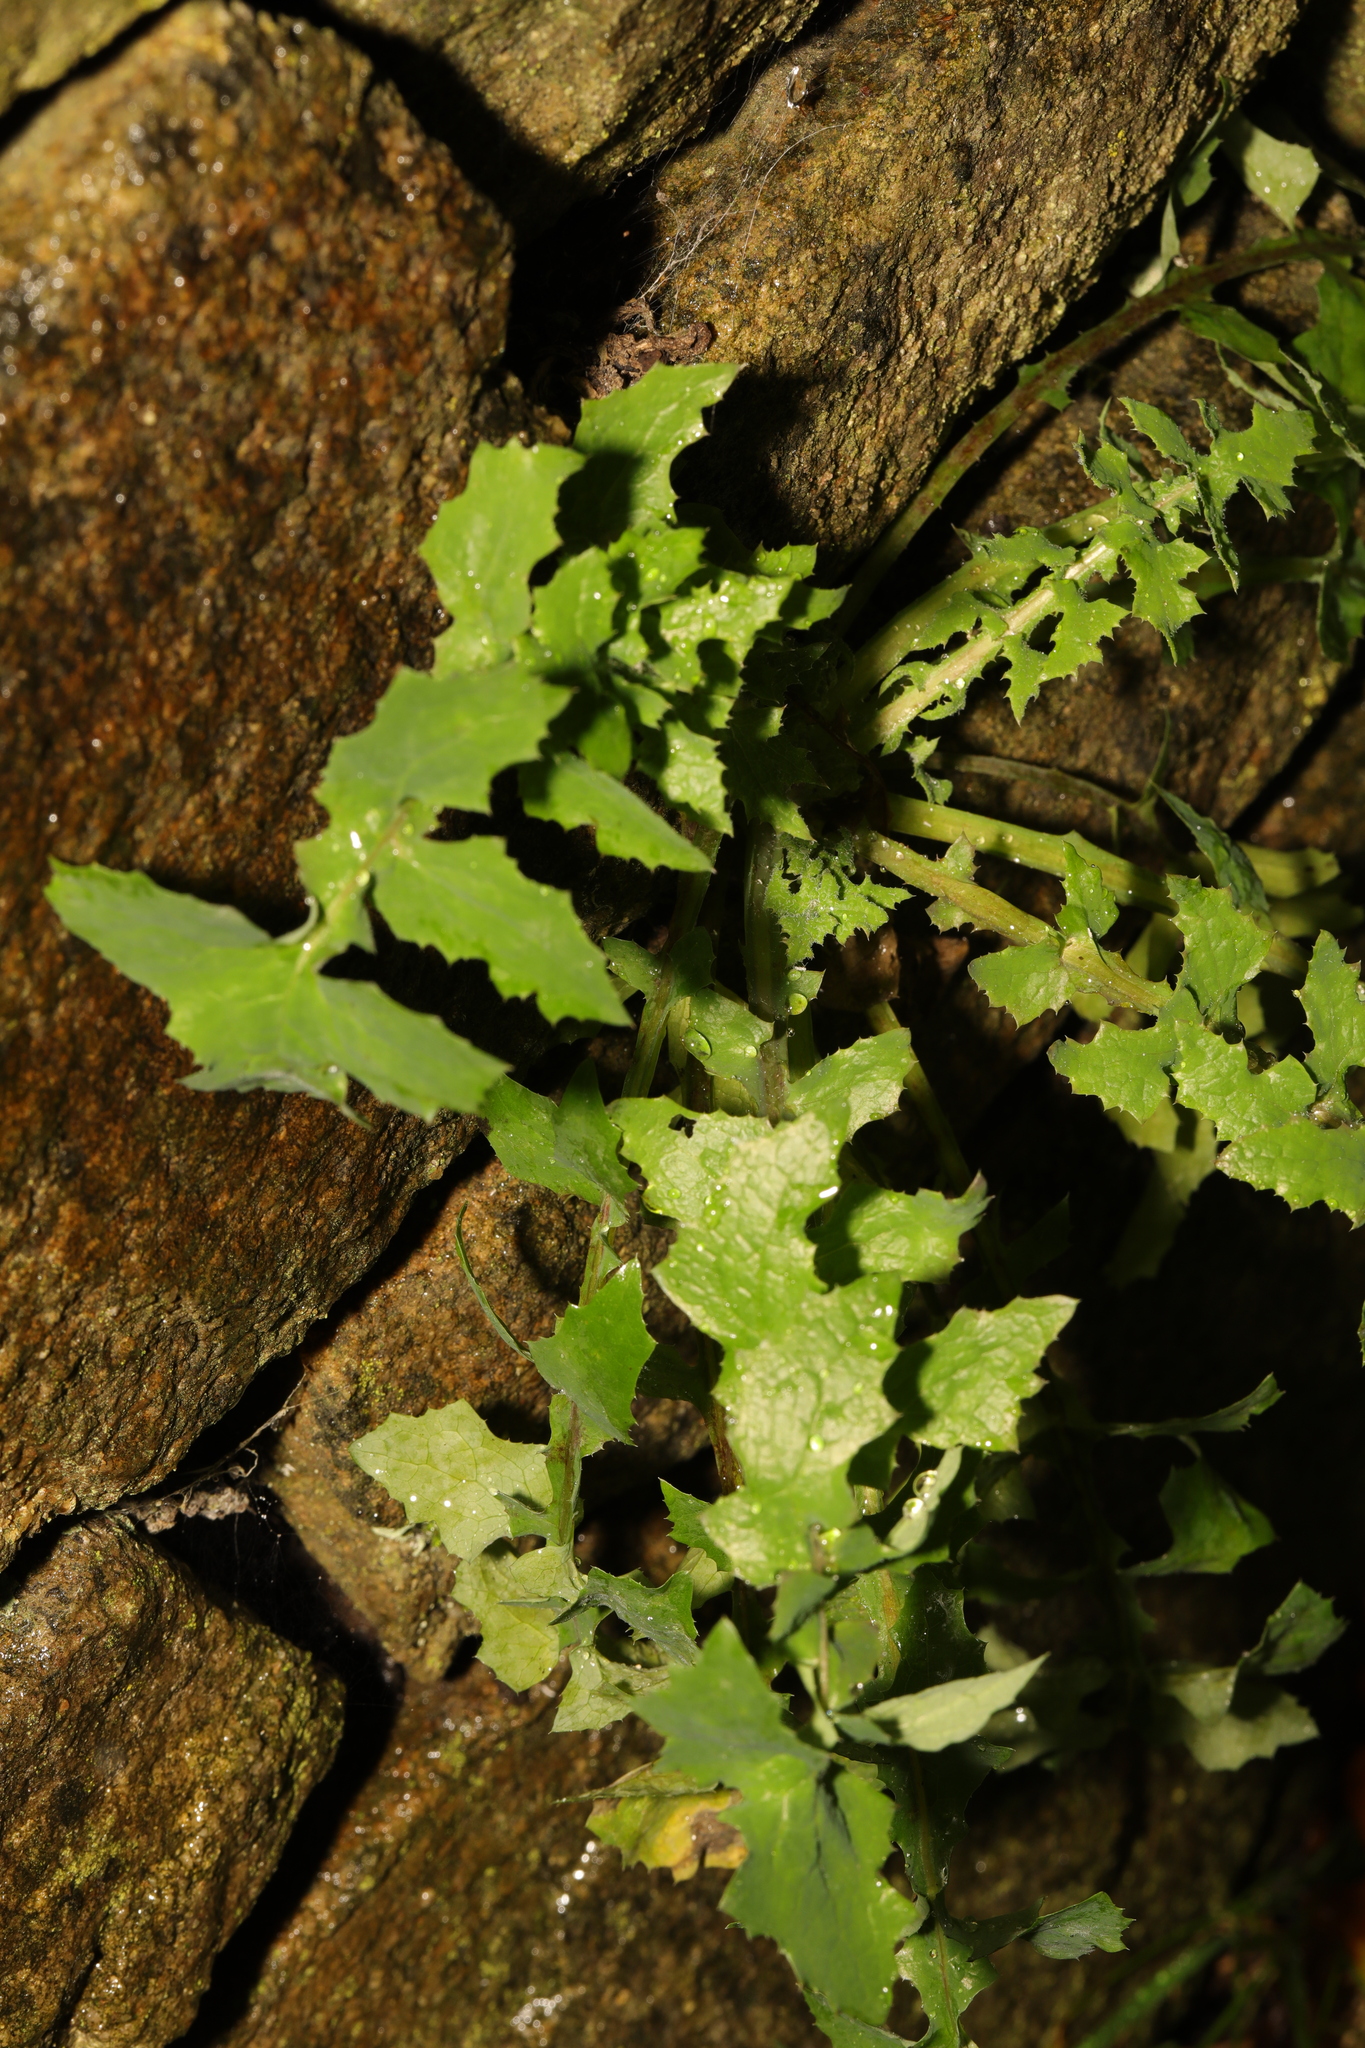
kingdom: Plantae
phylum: Tracheophyta
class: Magnoliopsida
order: Asterales
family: Asteraceae
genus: Sonchus
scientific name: Sonchus oleraceus
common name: Common sowthistle
